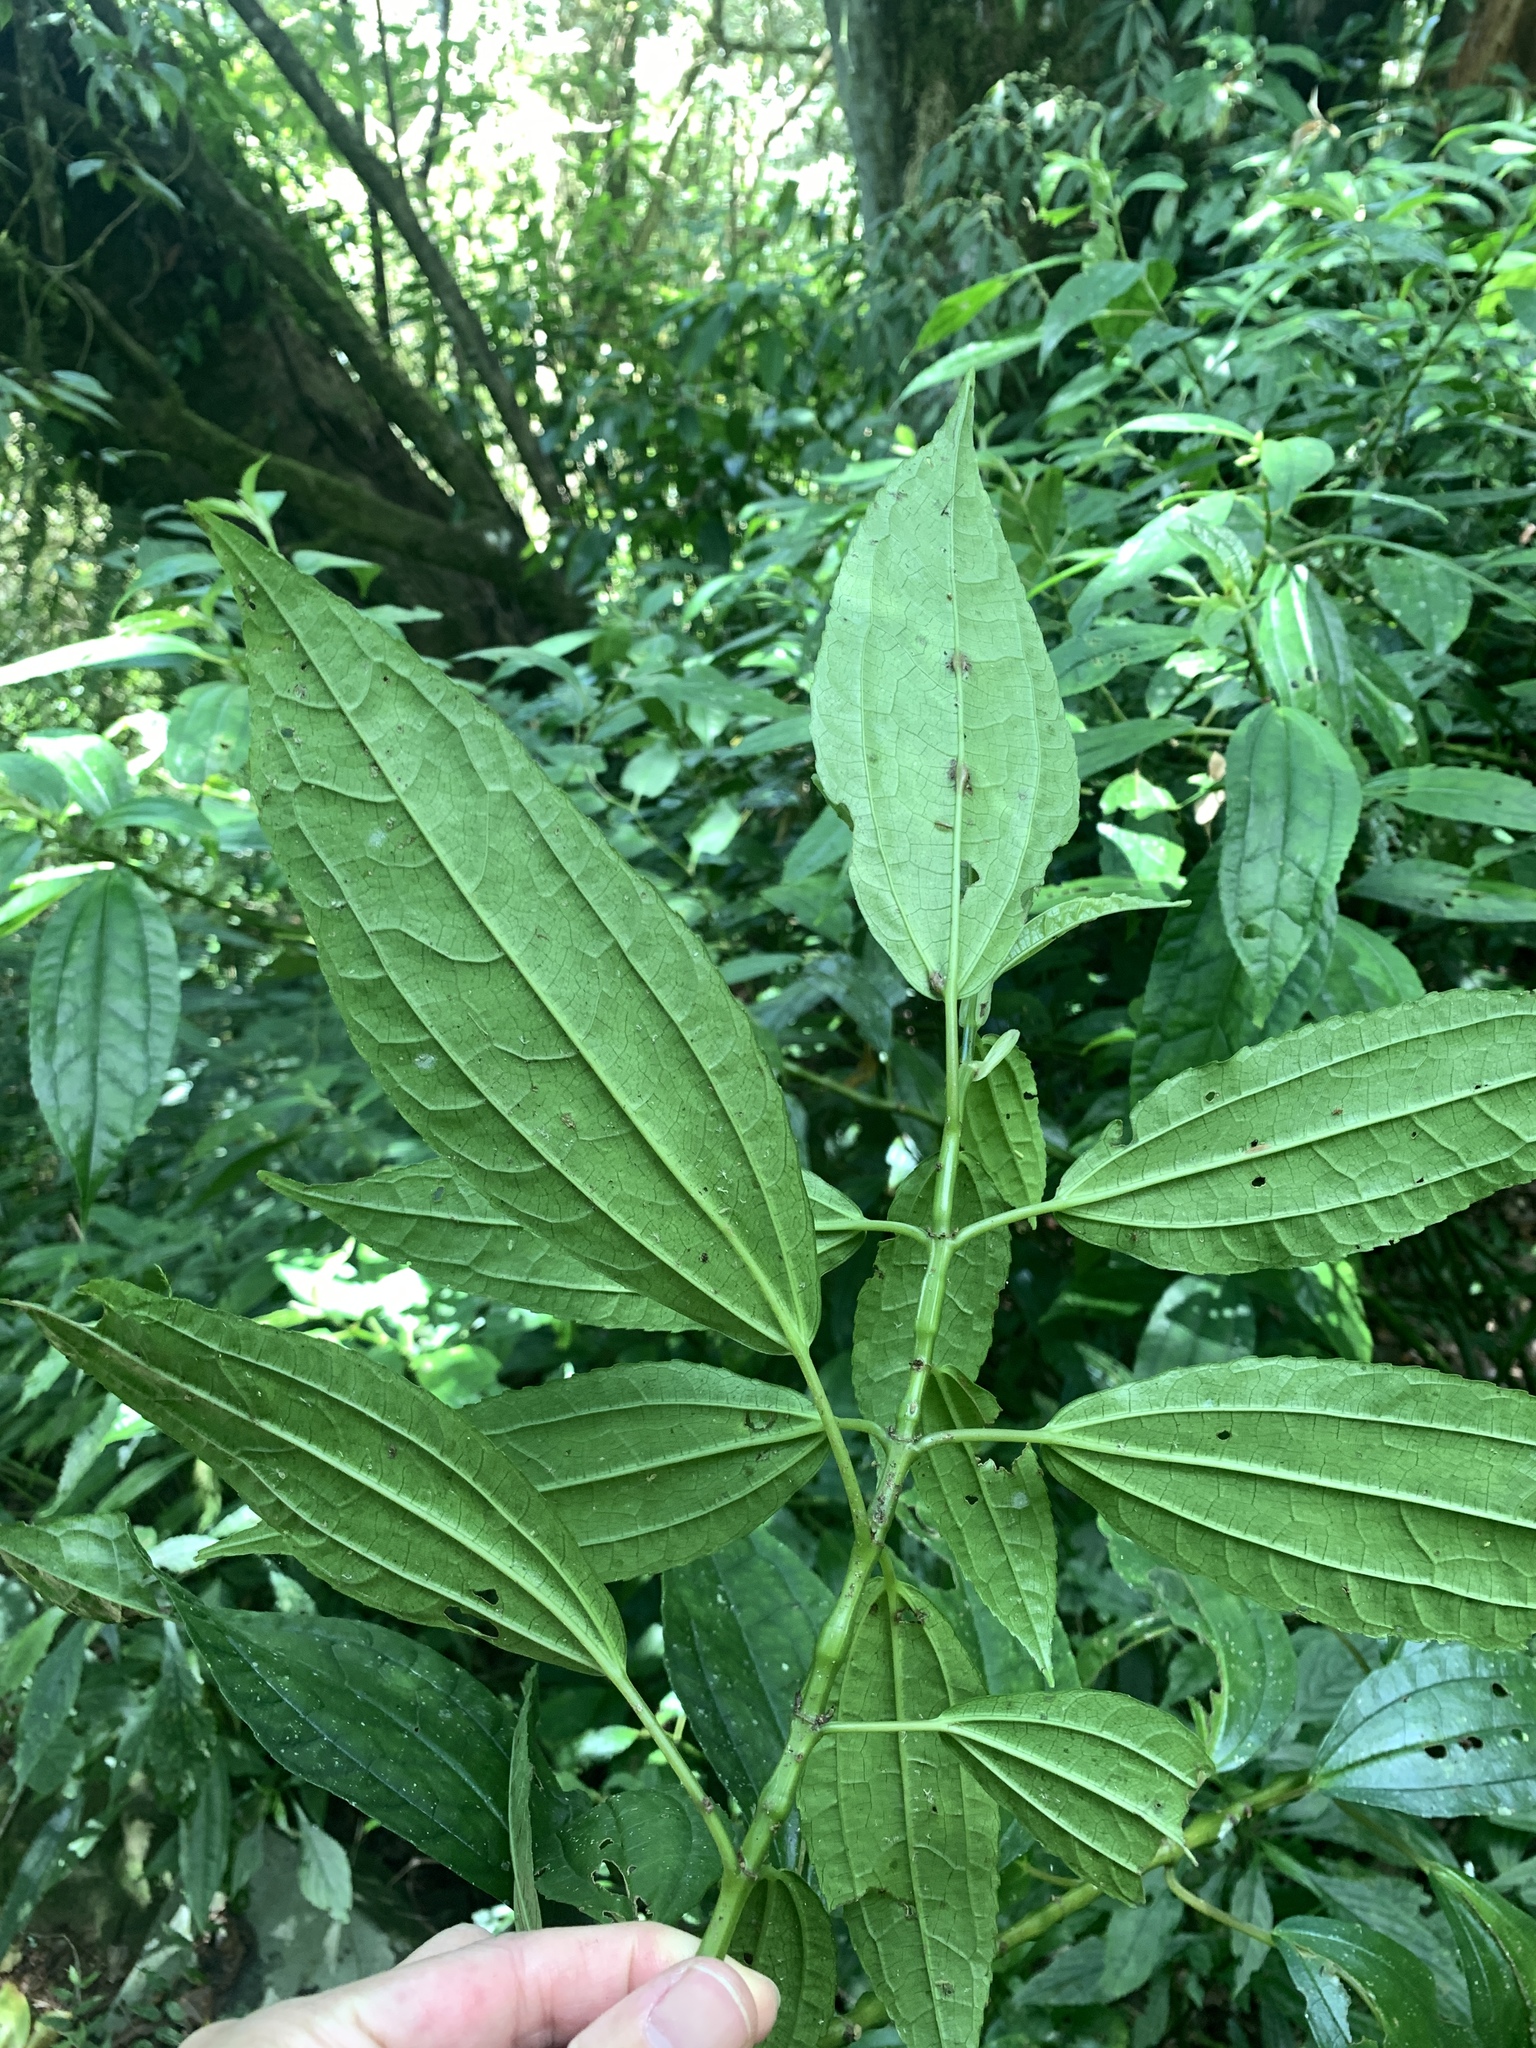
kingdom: Plantae
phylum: Tracheophyta
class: Magnoliopsida
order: Rosales
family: Urticaceae
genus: Pilea
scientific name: Pilea funkikensis
